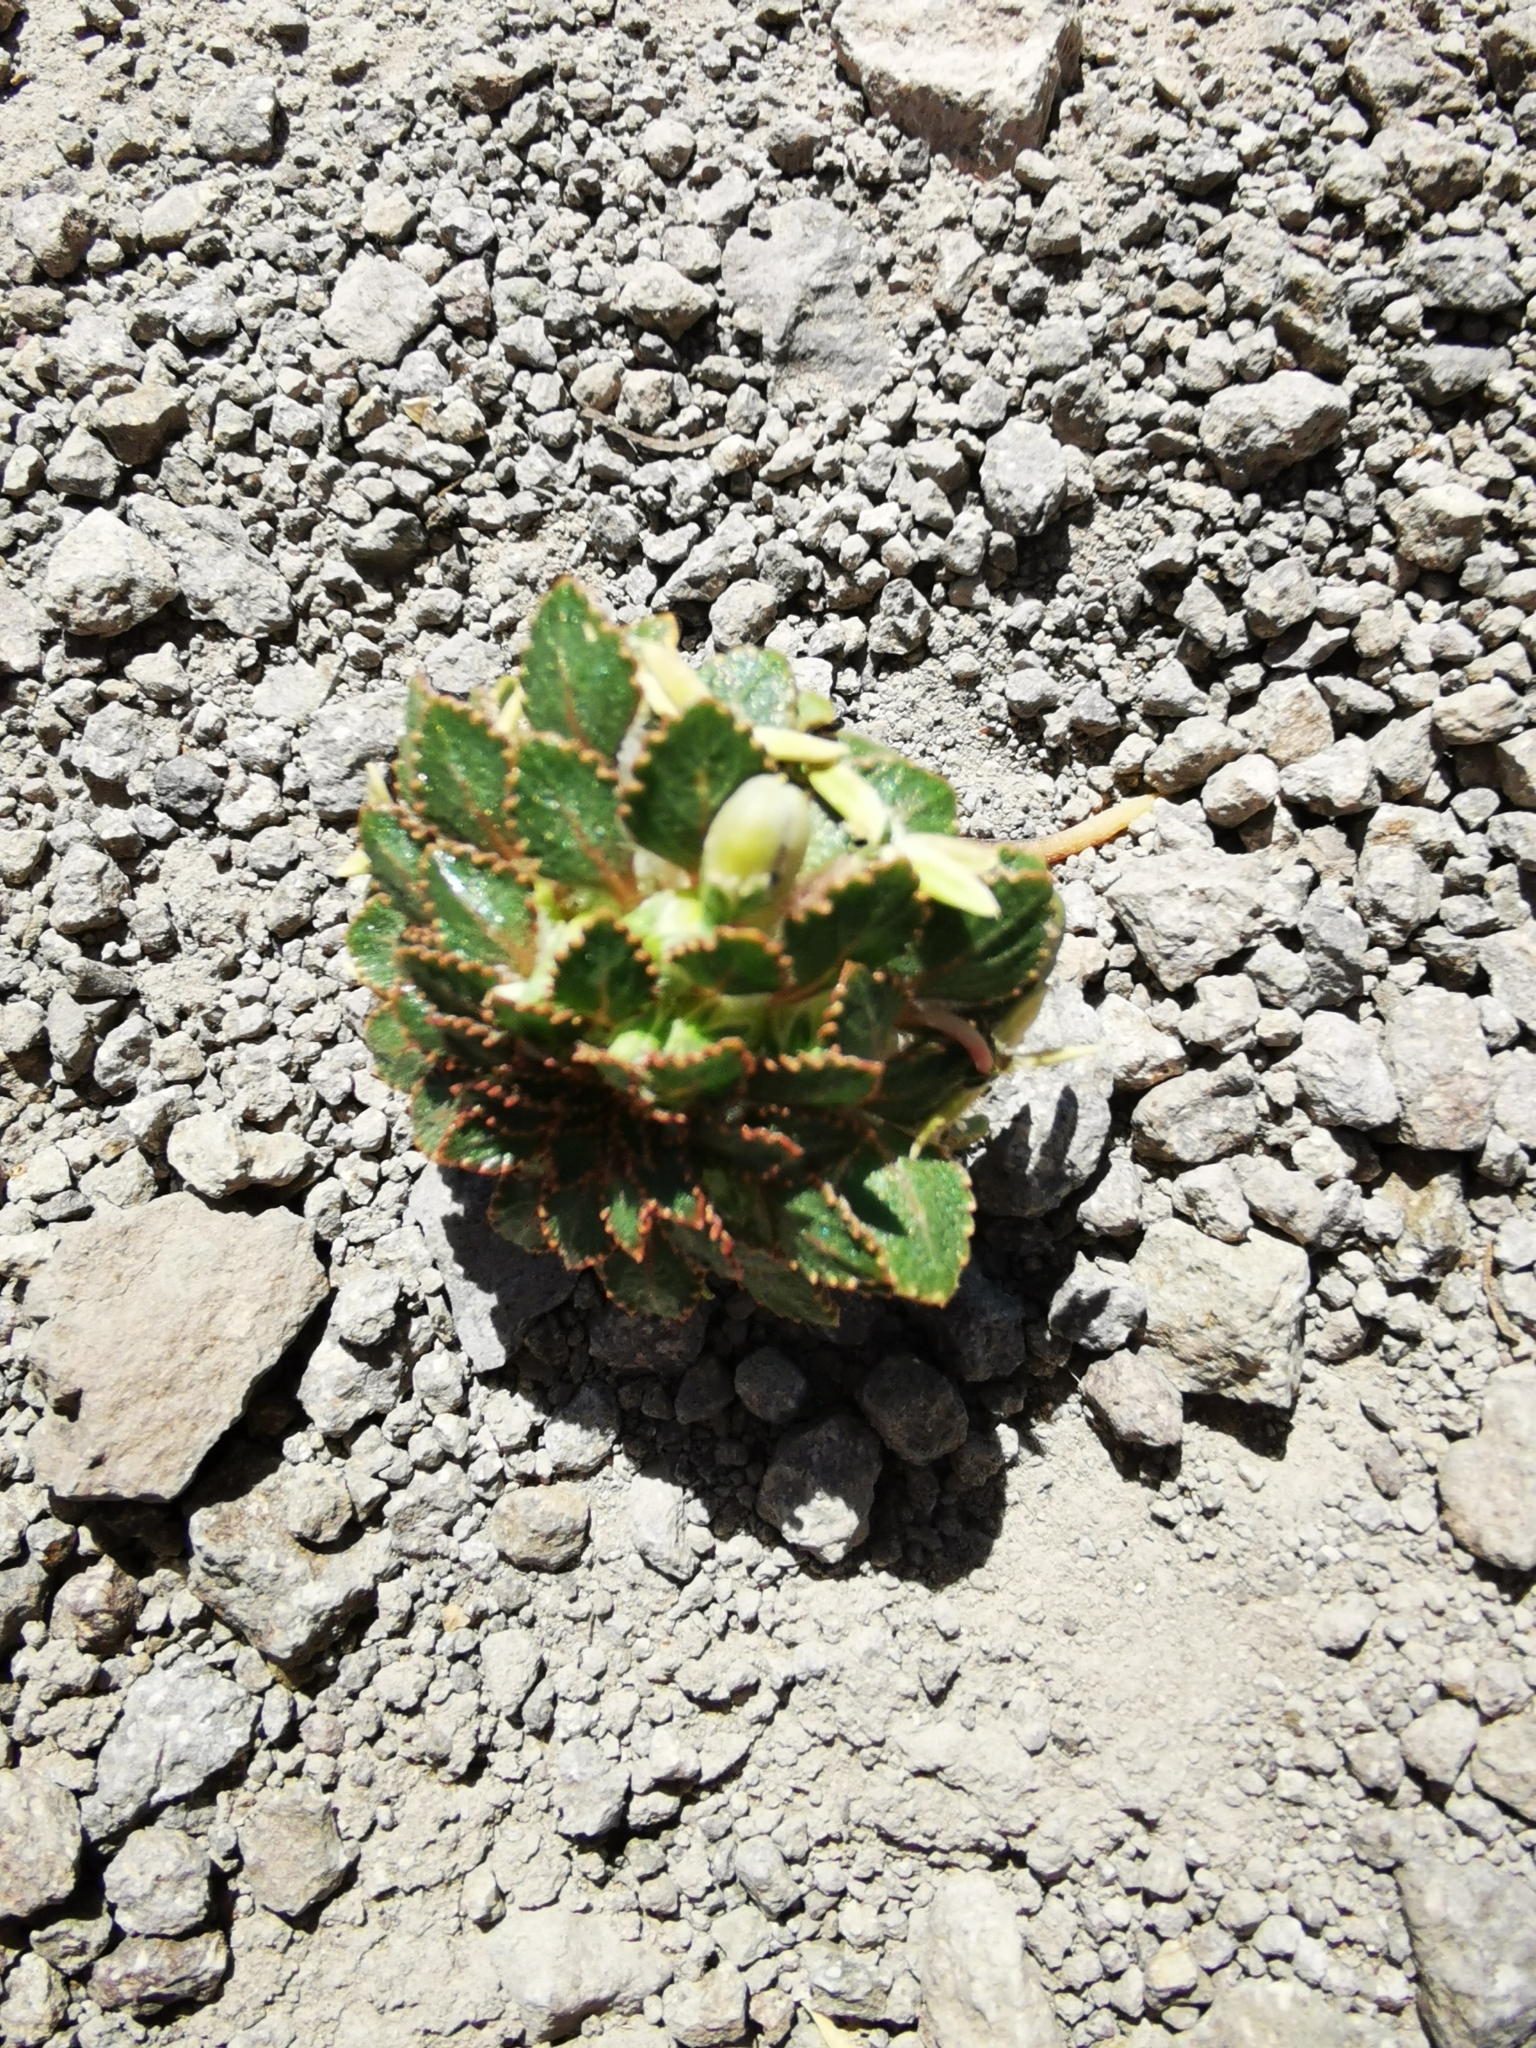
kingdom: Plantae
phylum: Tracheophyta
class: Magnoliopsida
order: Malpighiales
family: Violaceae
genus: Viola
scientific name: Viola subandina
